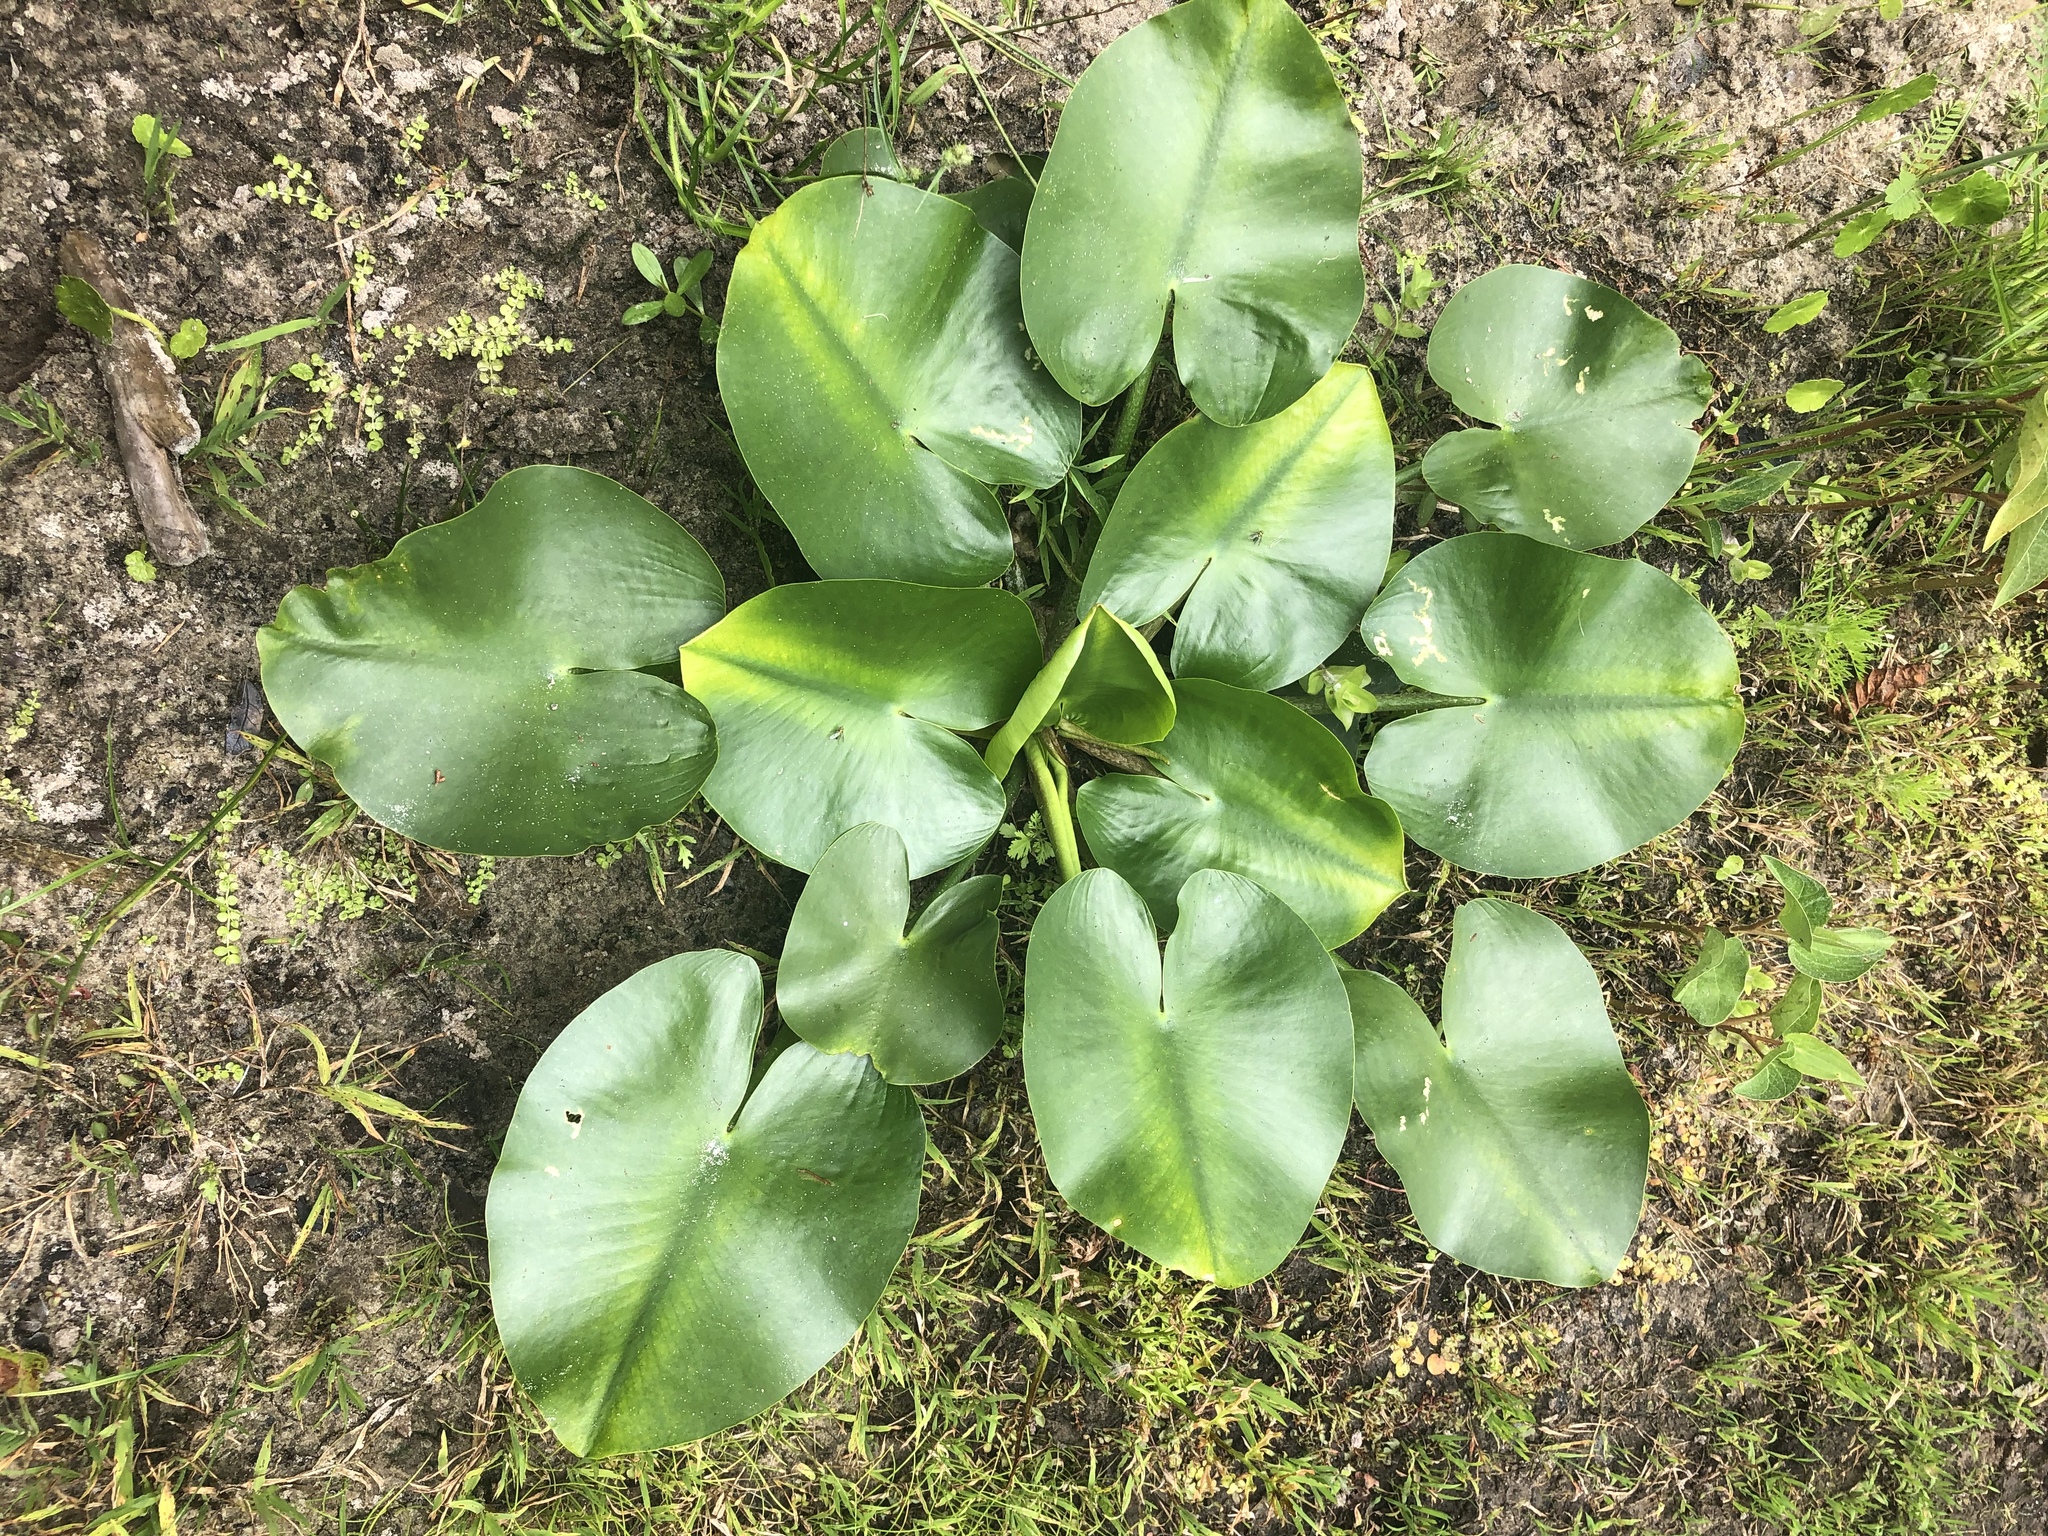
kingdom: Plantae
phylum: Tracheophyta
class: Magnoliopsida
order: Nymphaeales
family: Nymphaeaceae
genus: Nuphar
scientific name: Nuphar advena
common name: Spatter-dock
